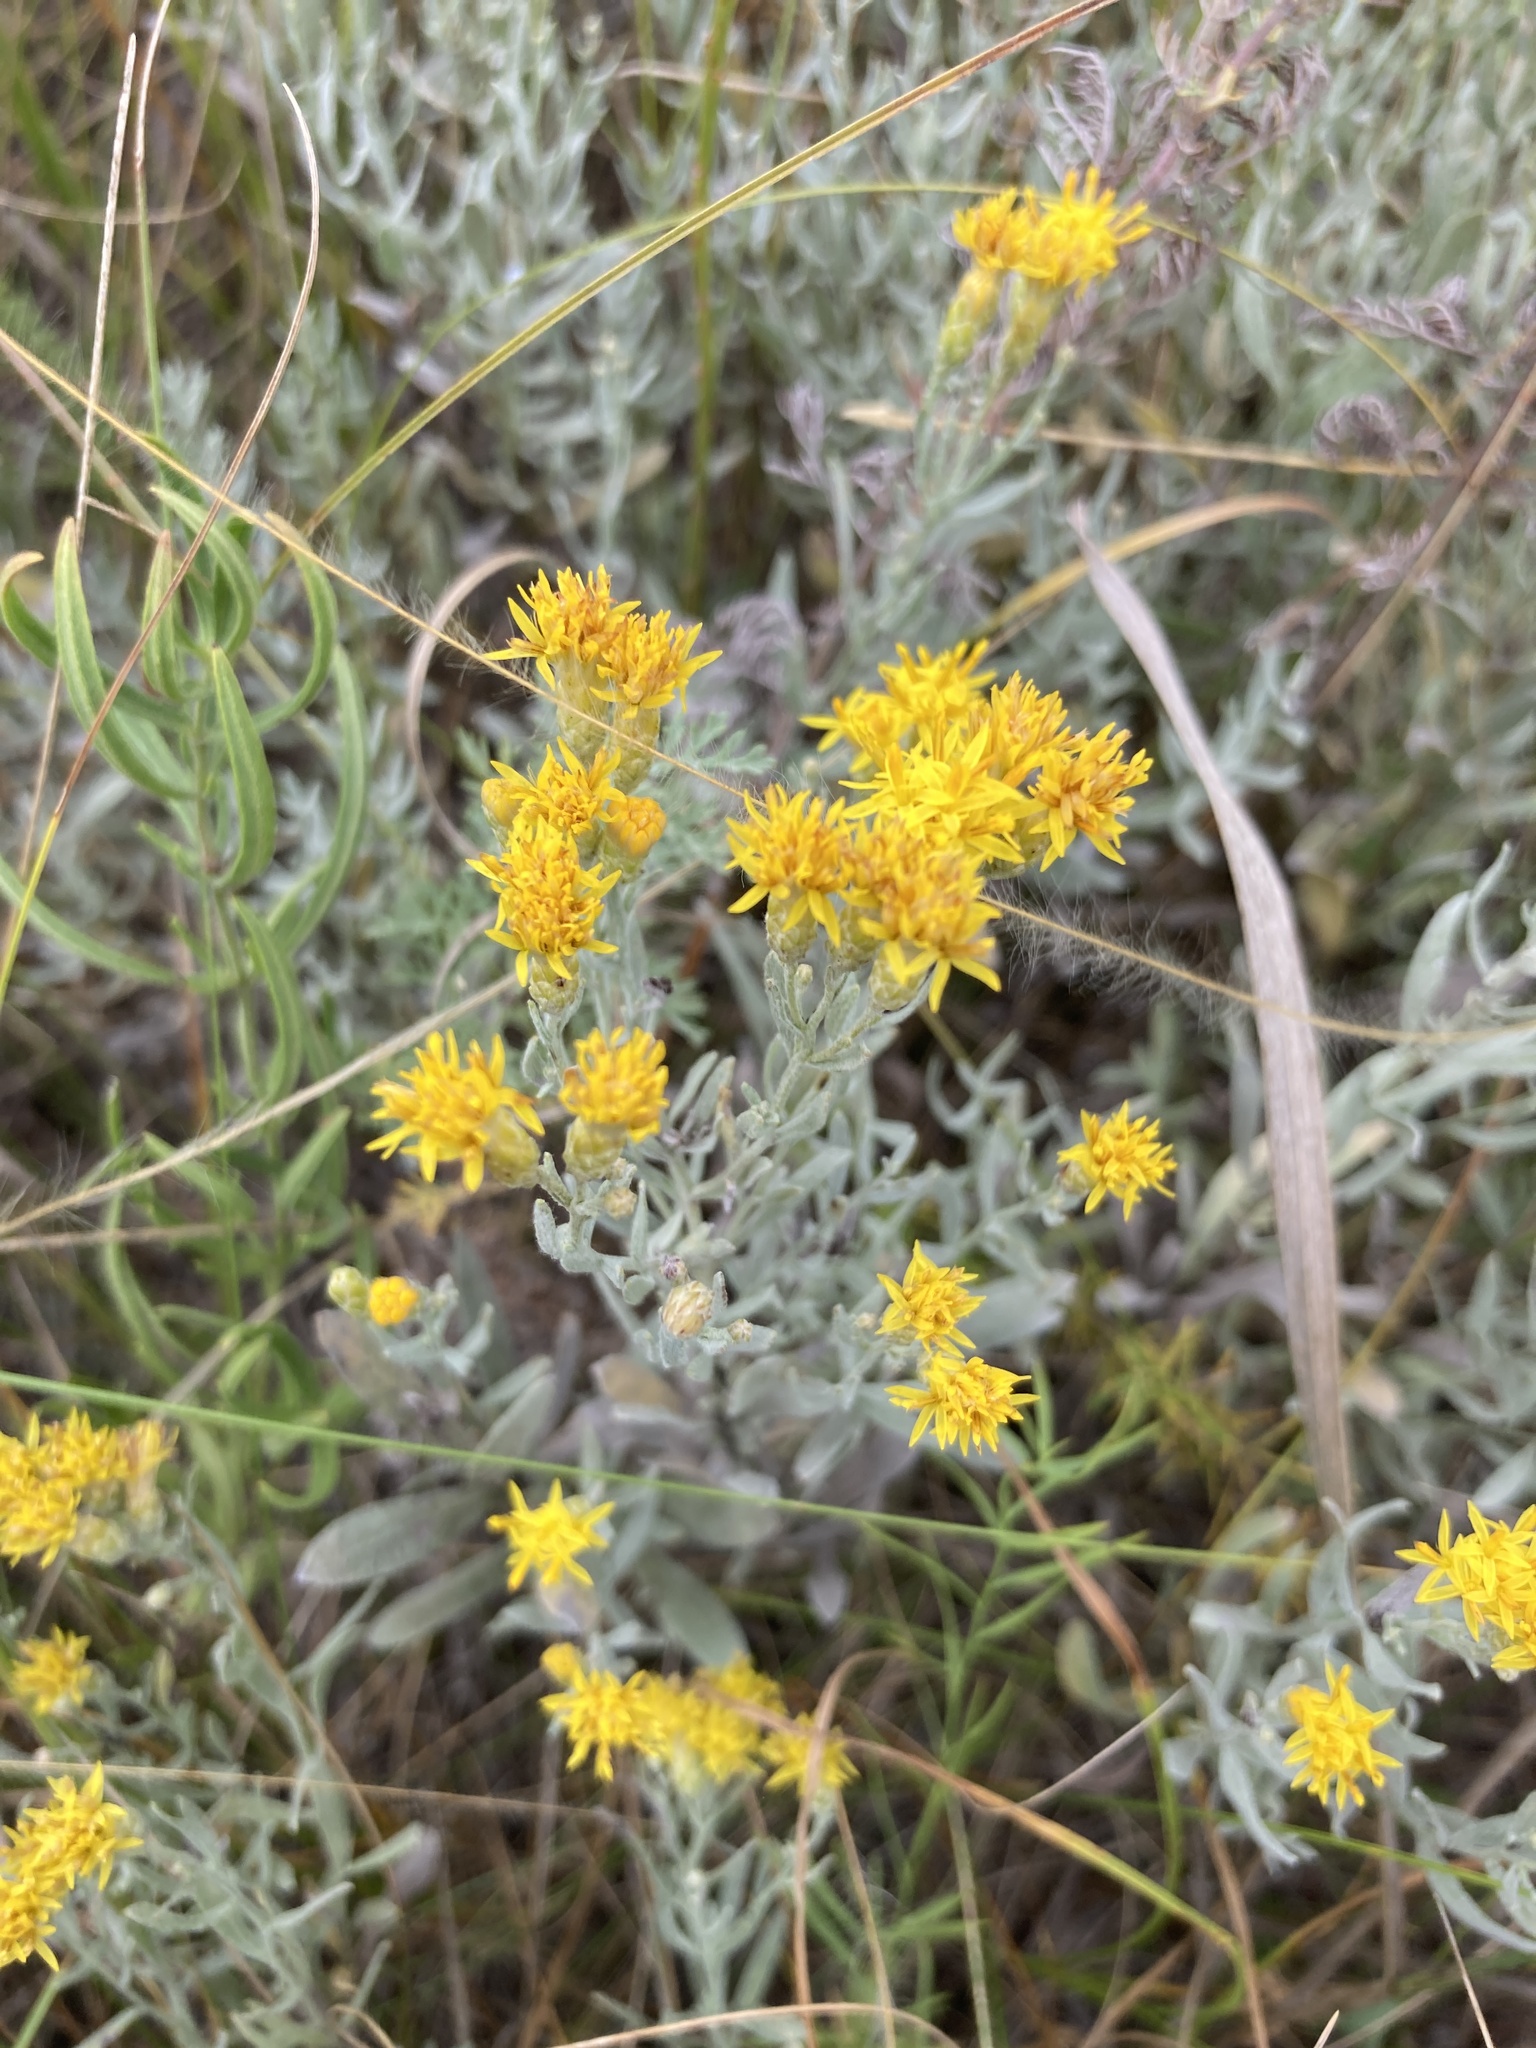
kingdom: Plantae
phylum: Tracheophyta
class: Magnoliopsida
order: Asterales
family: Asteraceae
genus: Galatella
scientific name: Galatella villosa
